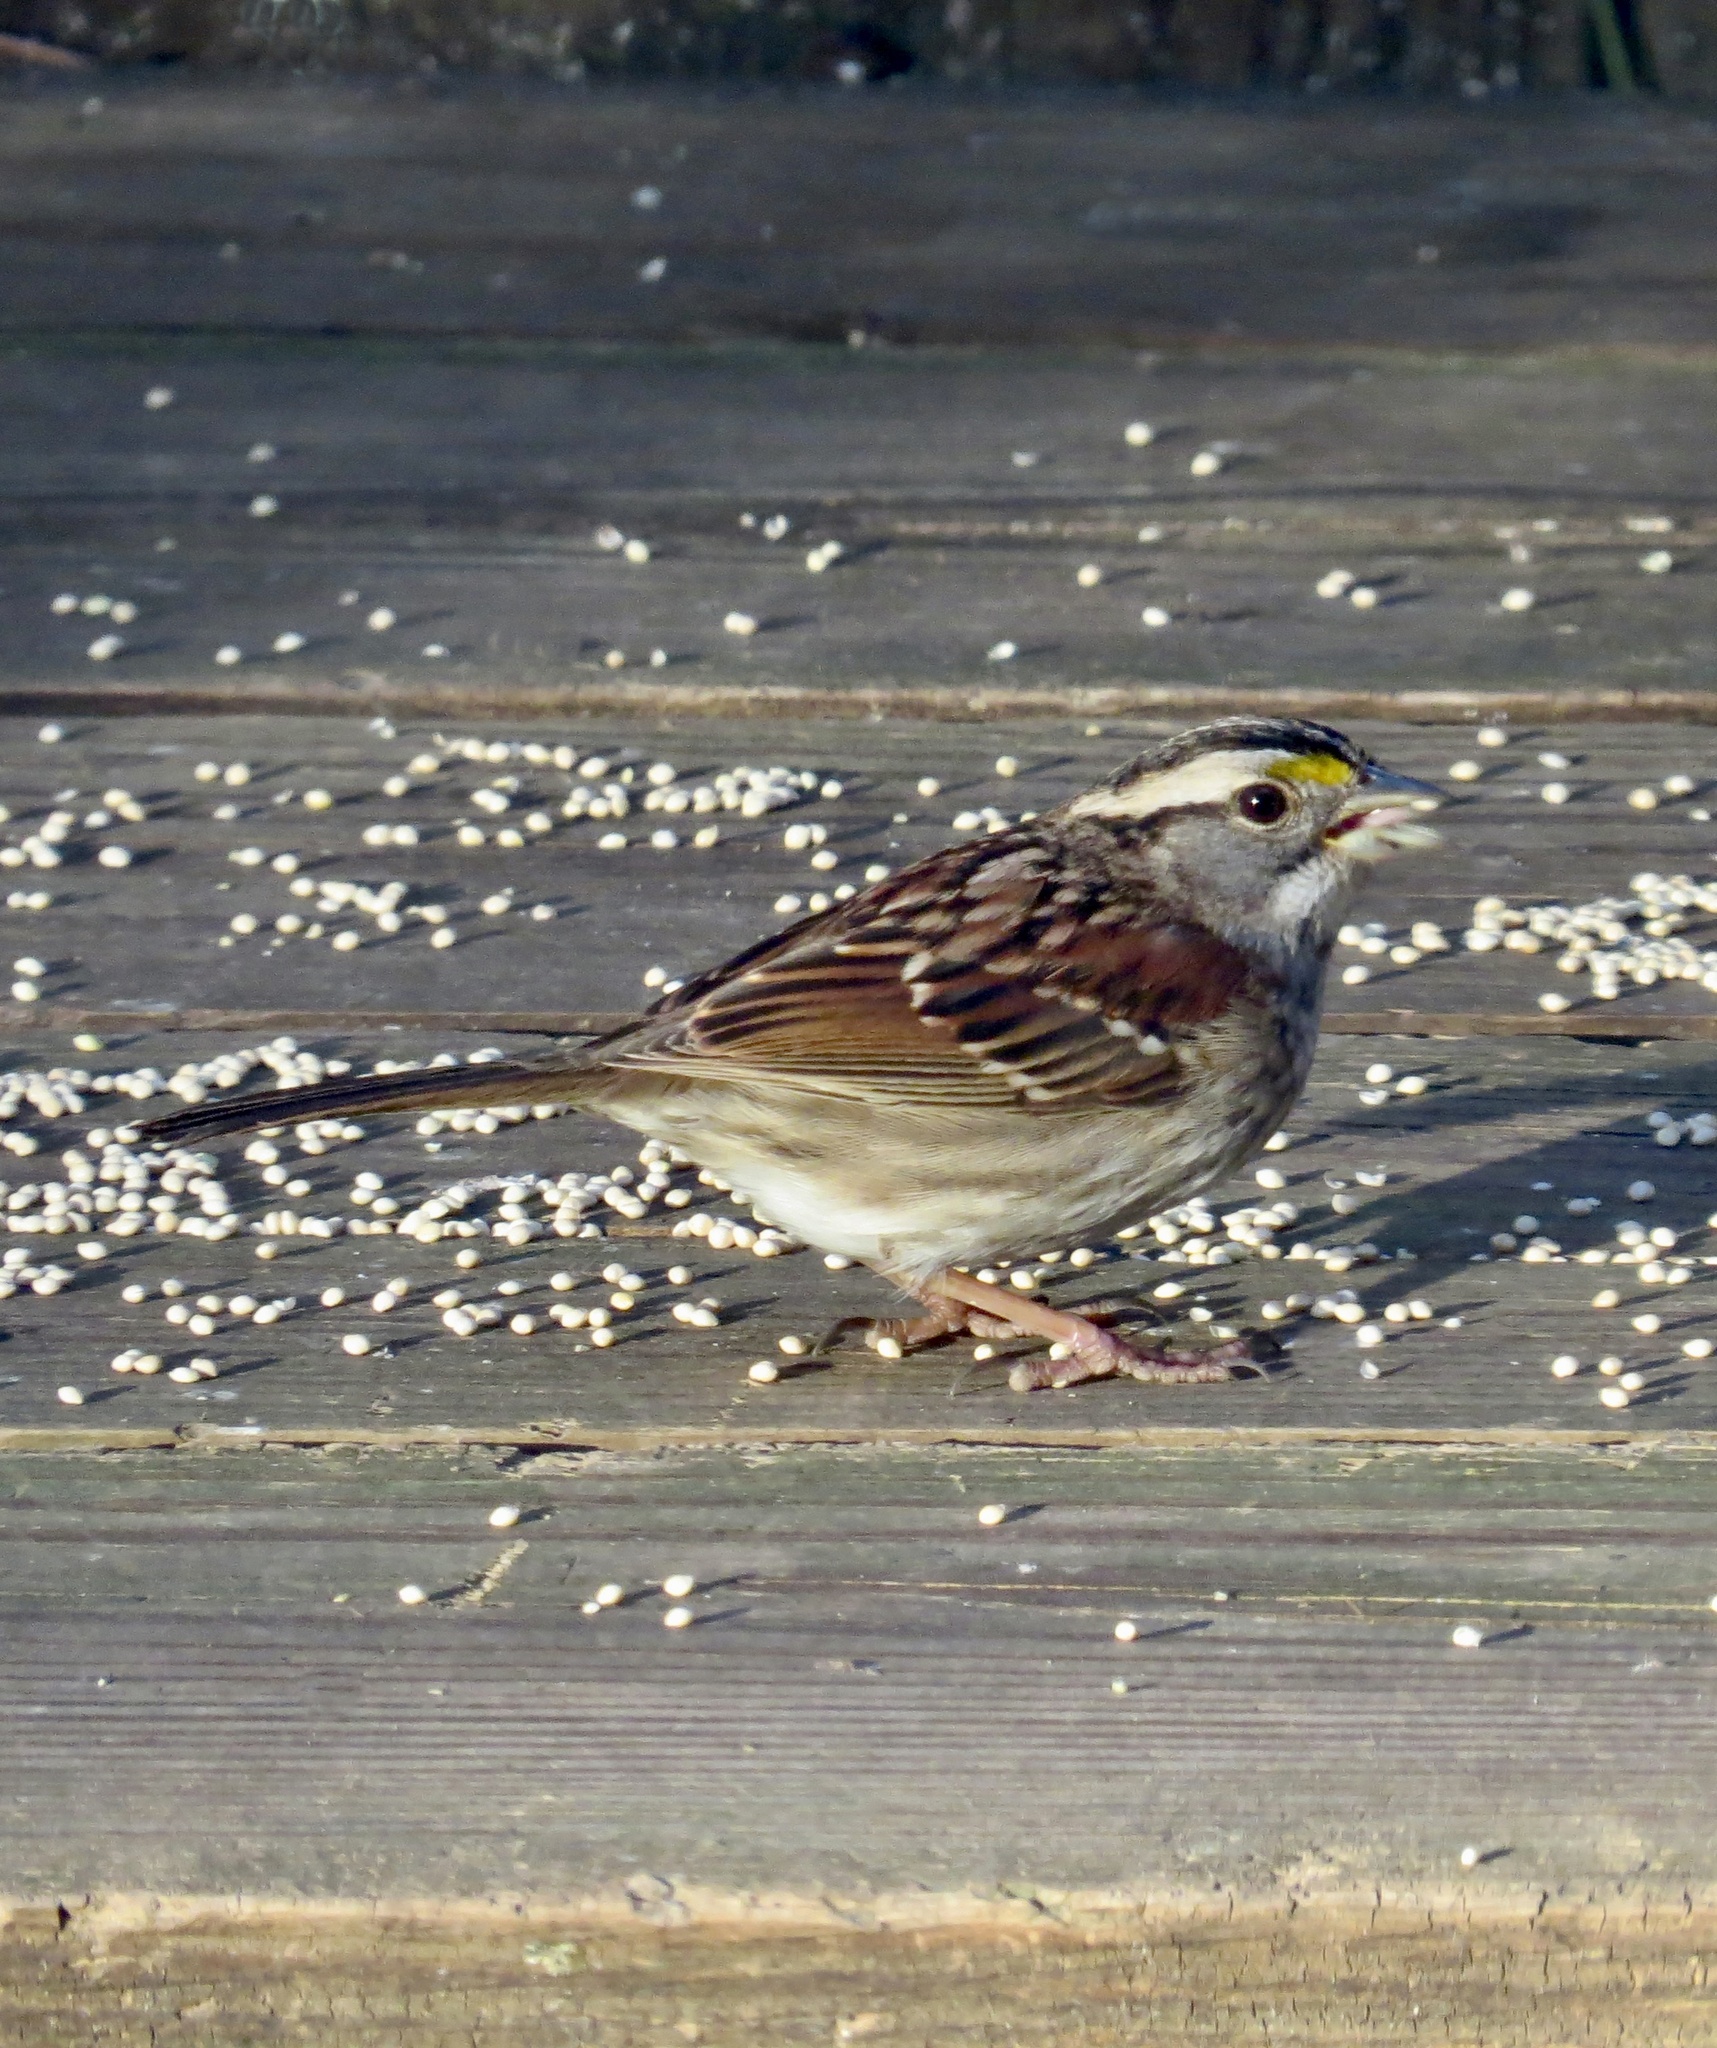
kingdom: Animalia
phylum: Chordata
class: Aves
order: Passeriformes
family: Passerellidae
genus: Zonotrichia
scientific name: Zonotrichia albicollis
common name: White-throated sparrow
